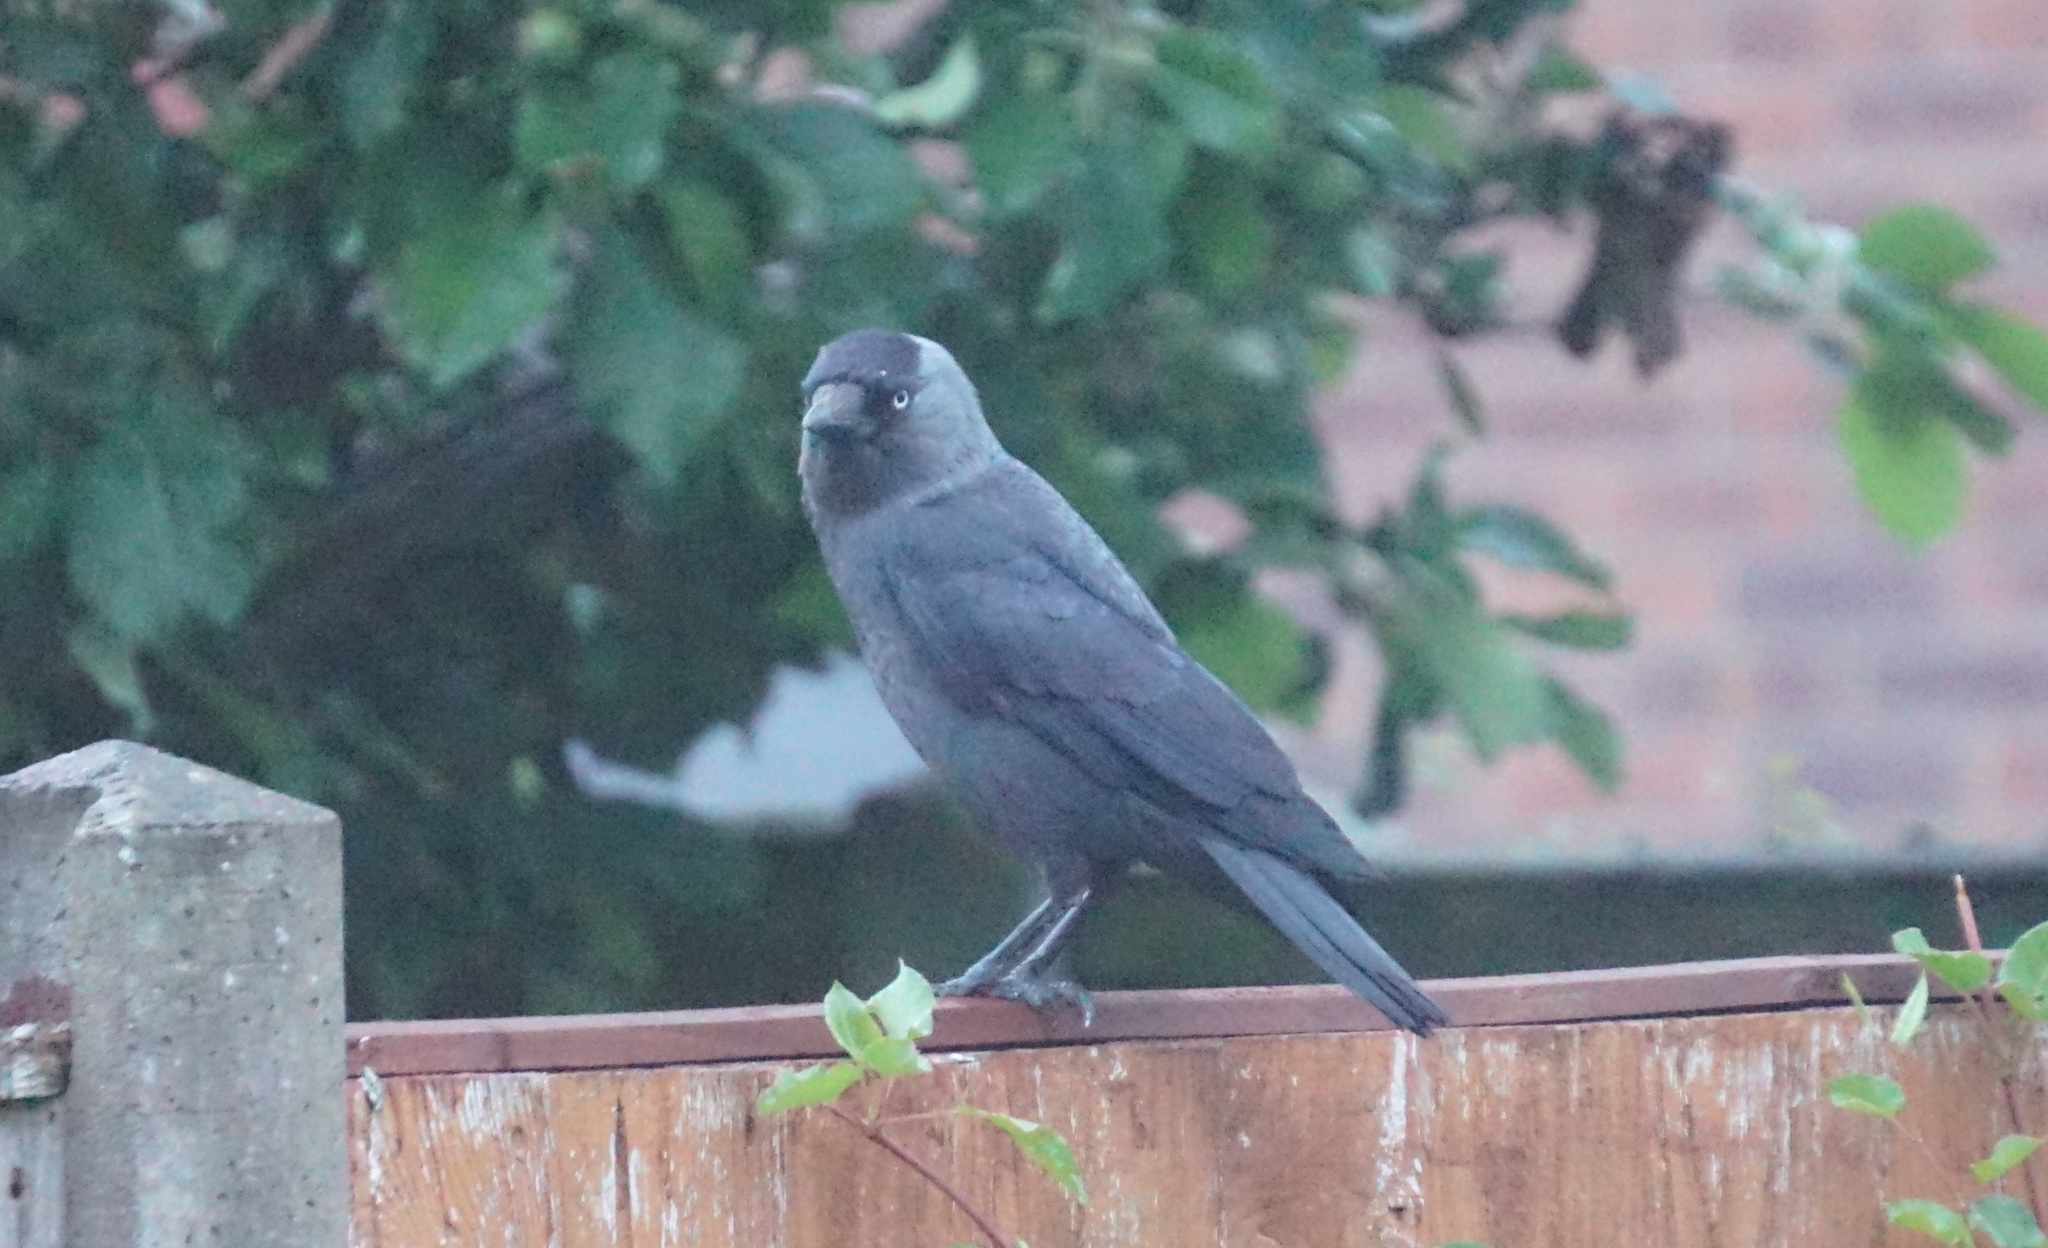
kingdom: Animalia
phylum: Chordata
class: Aves
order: Passeriformes
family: Corvidae
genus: Coloeus
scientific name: Coloeus monedula
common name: Western jackdaw
